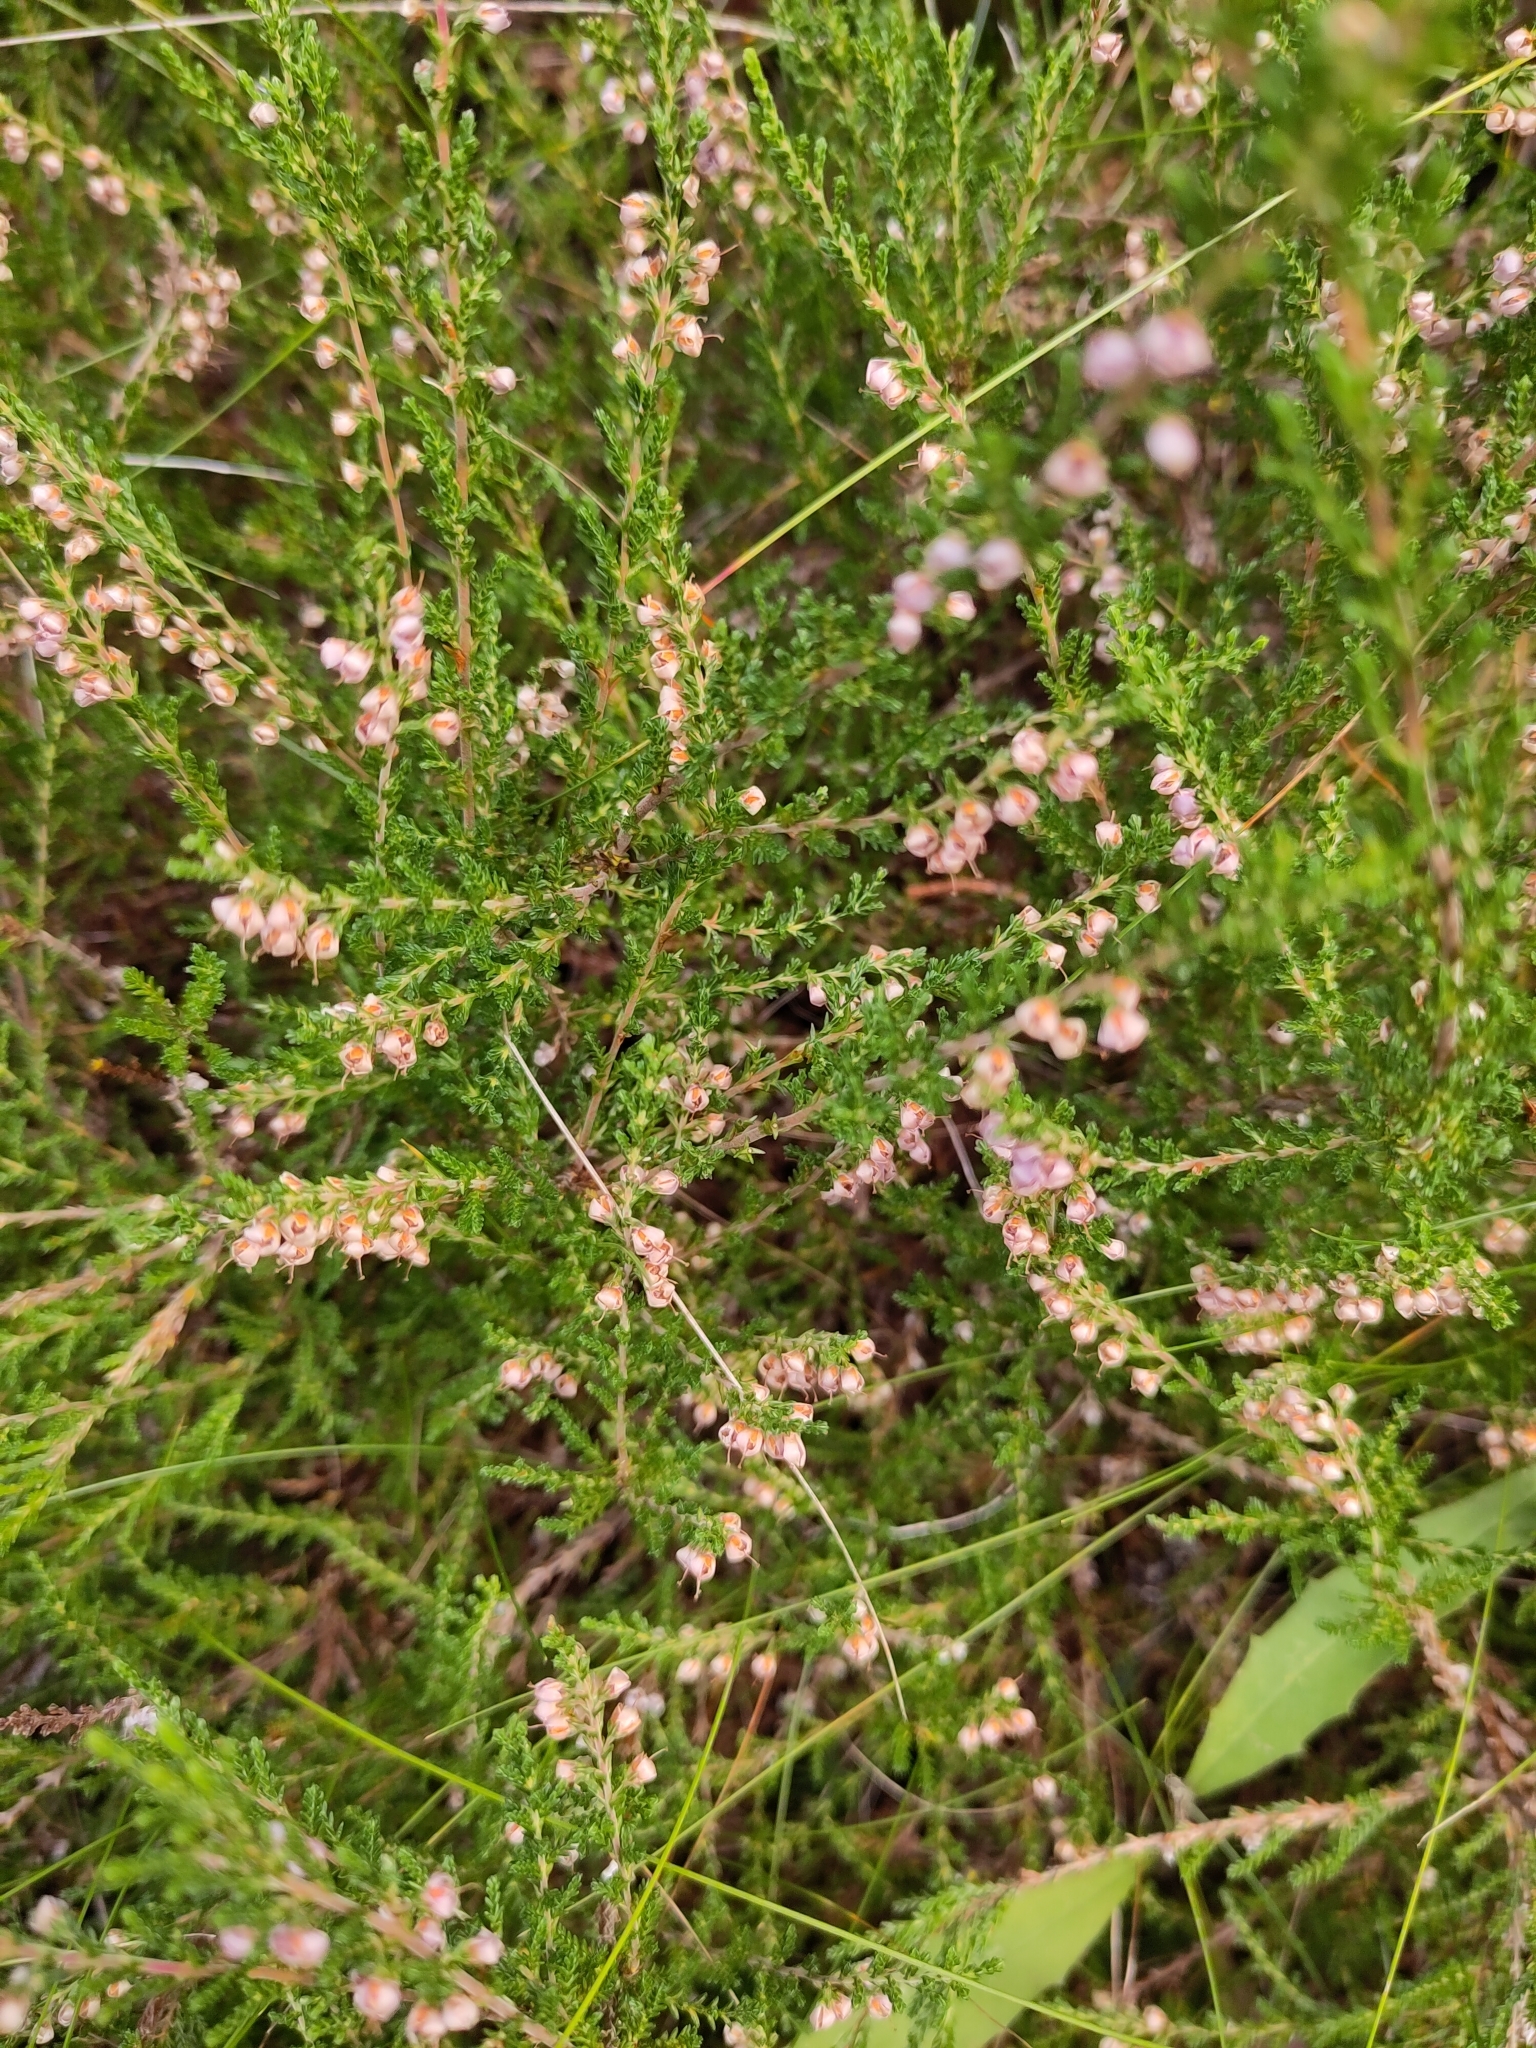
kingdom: Plantae
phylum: Tracheophyta
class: Magnoliopsida
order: Ericales
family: Ericaceae
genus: Calluna
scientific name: Calluna vulgaris
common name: Heather
